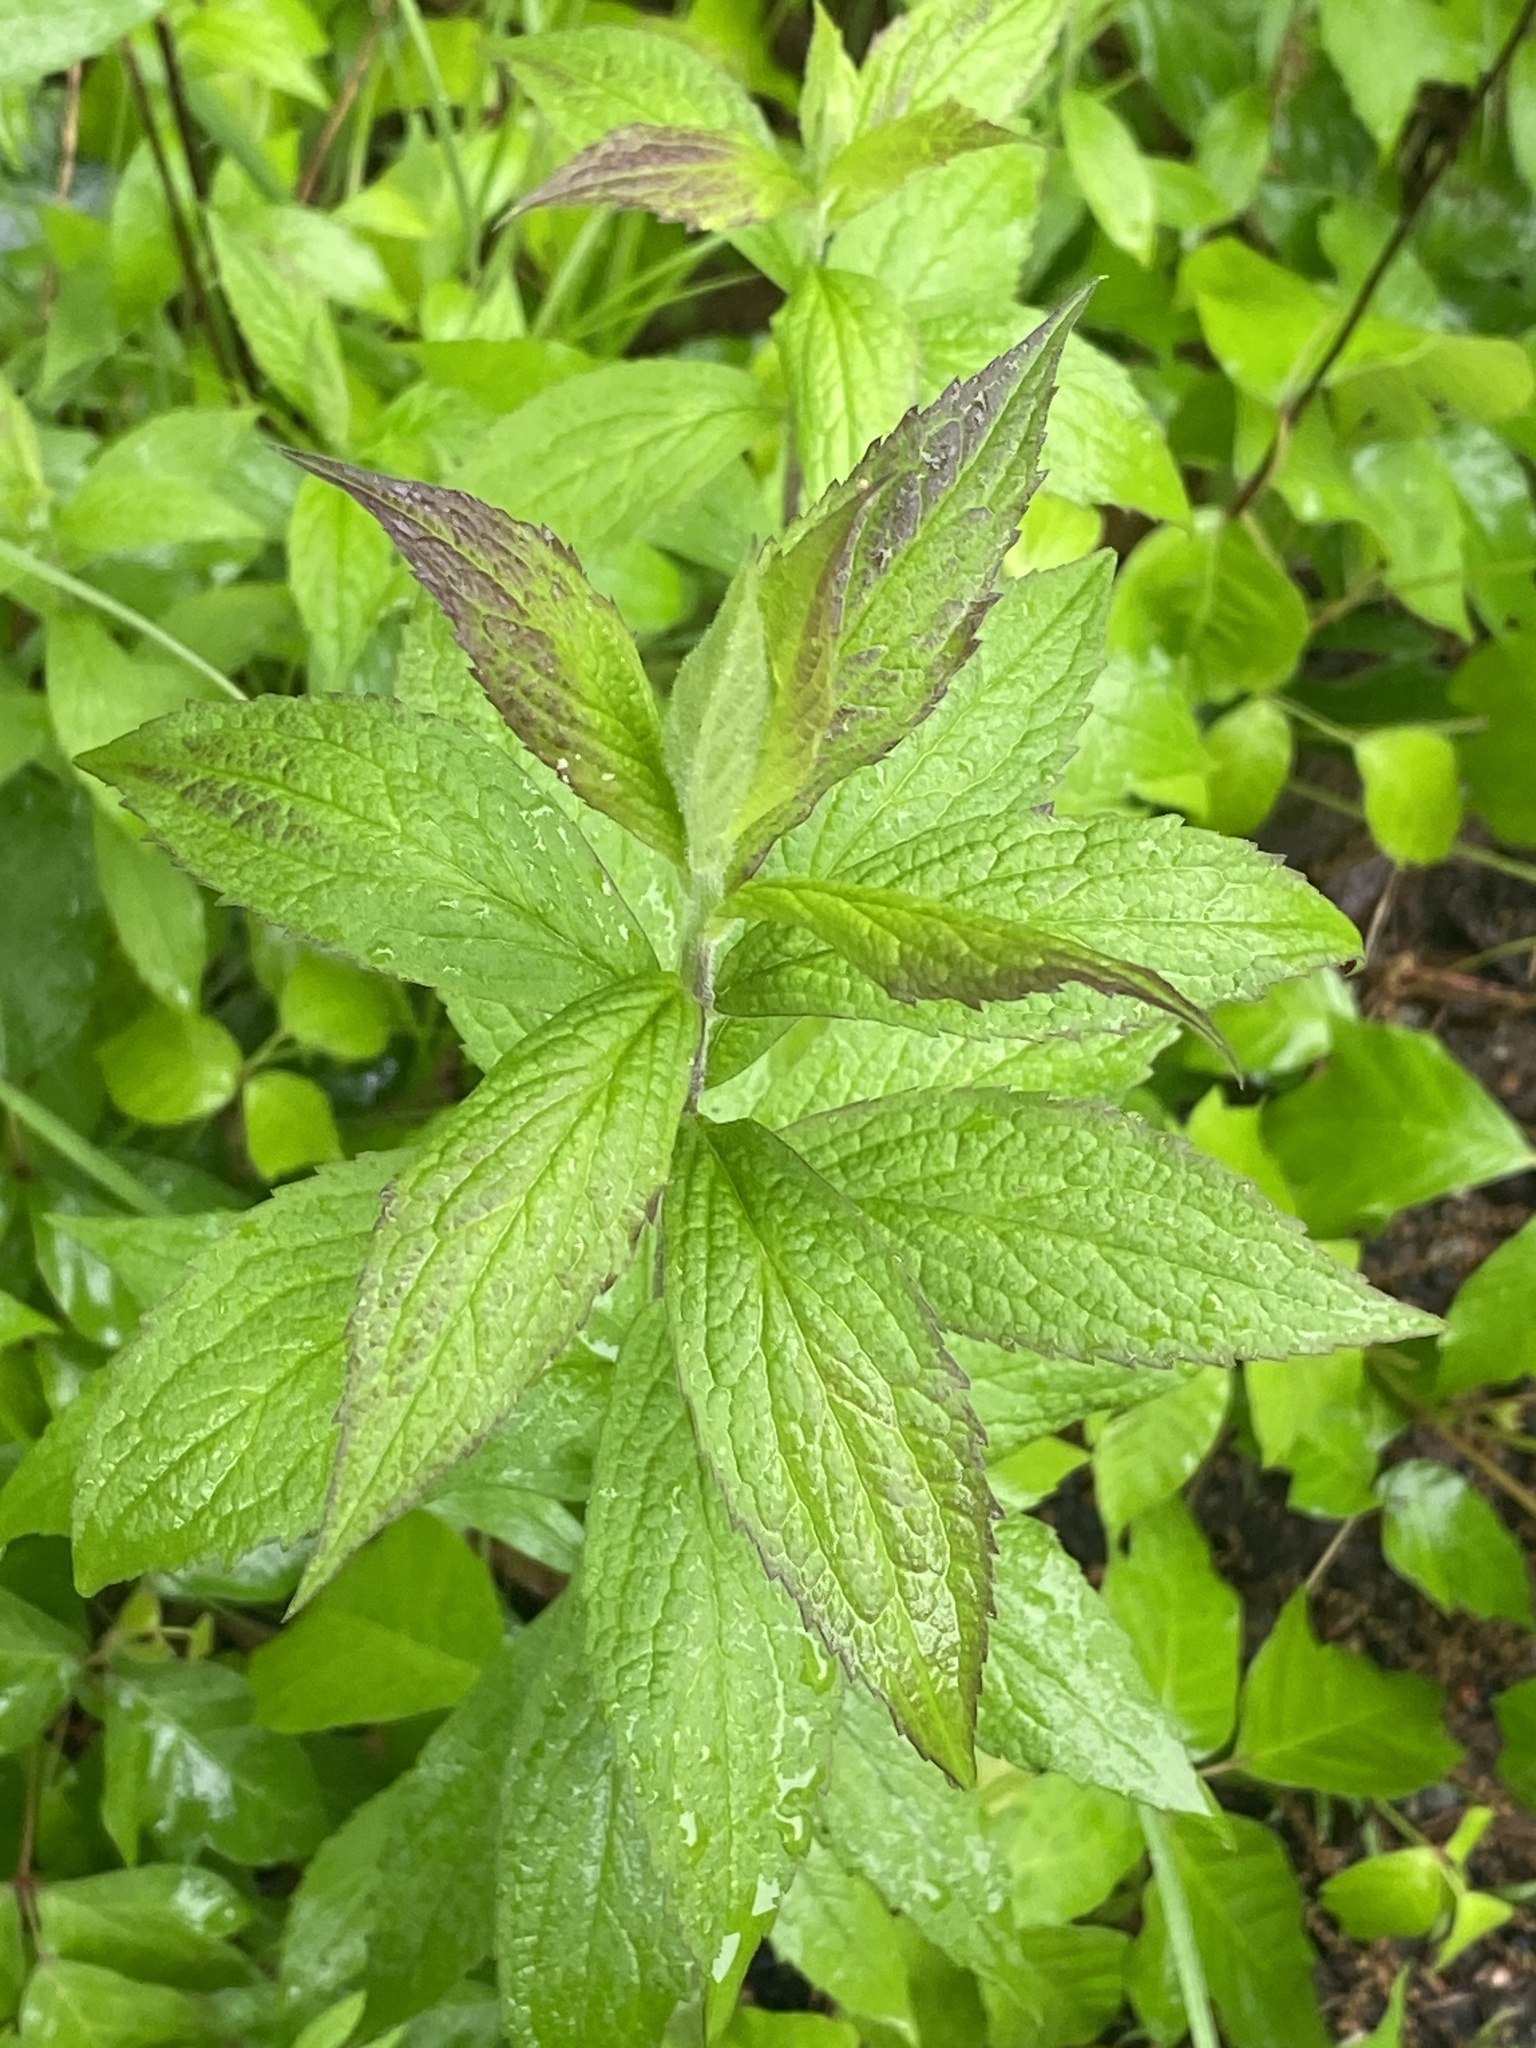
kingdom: Plantae
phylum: Tracheophyta
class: Magnoliopsida
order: Asterales
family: Asteraceae
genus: Solidago
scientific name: Solidago rugosa
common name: Rough-stemmed goldenrod
